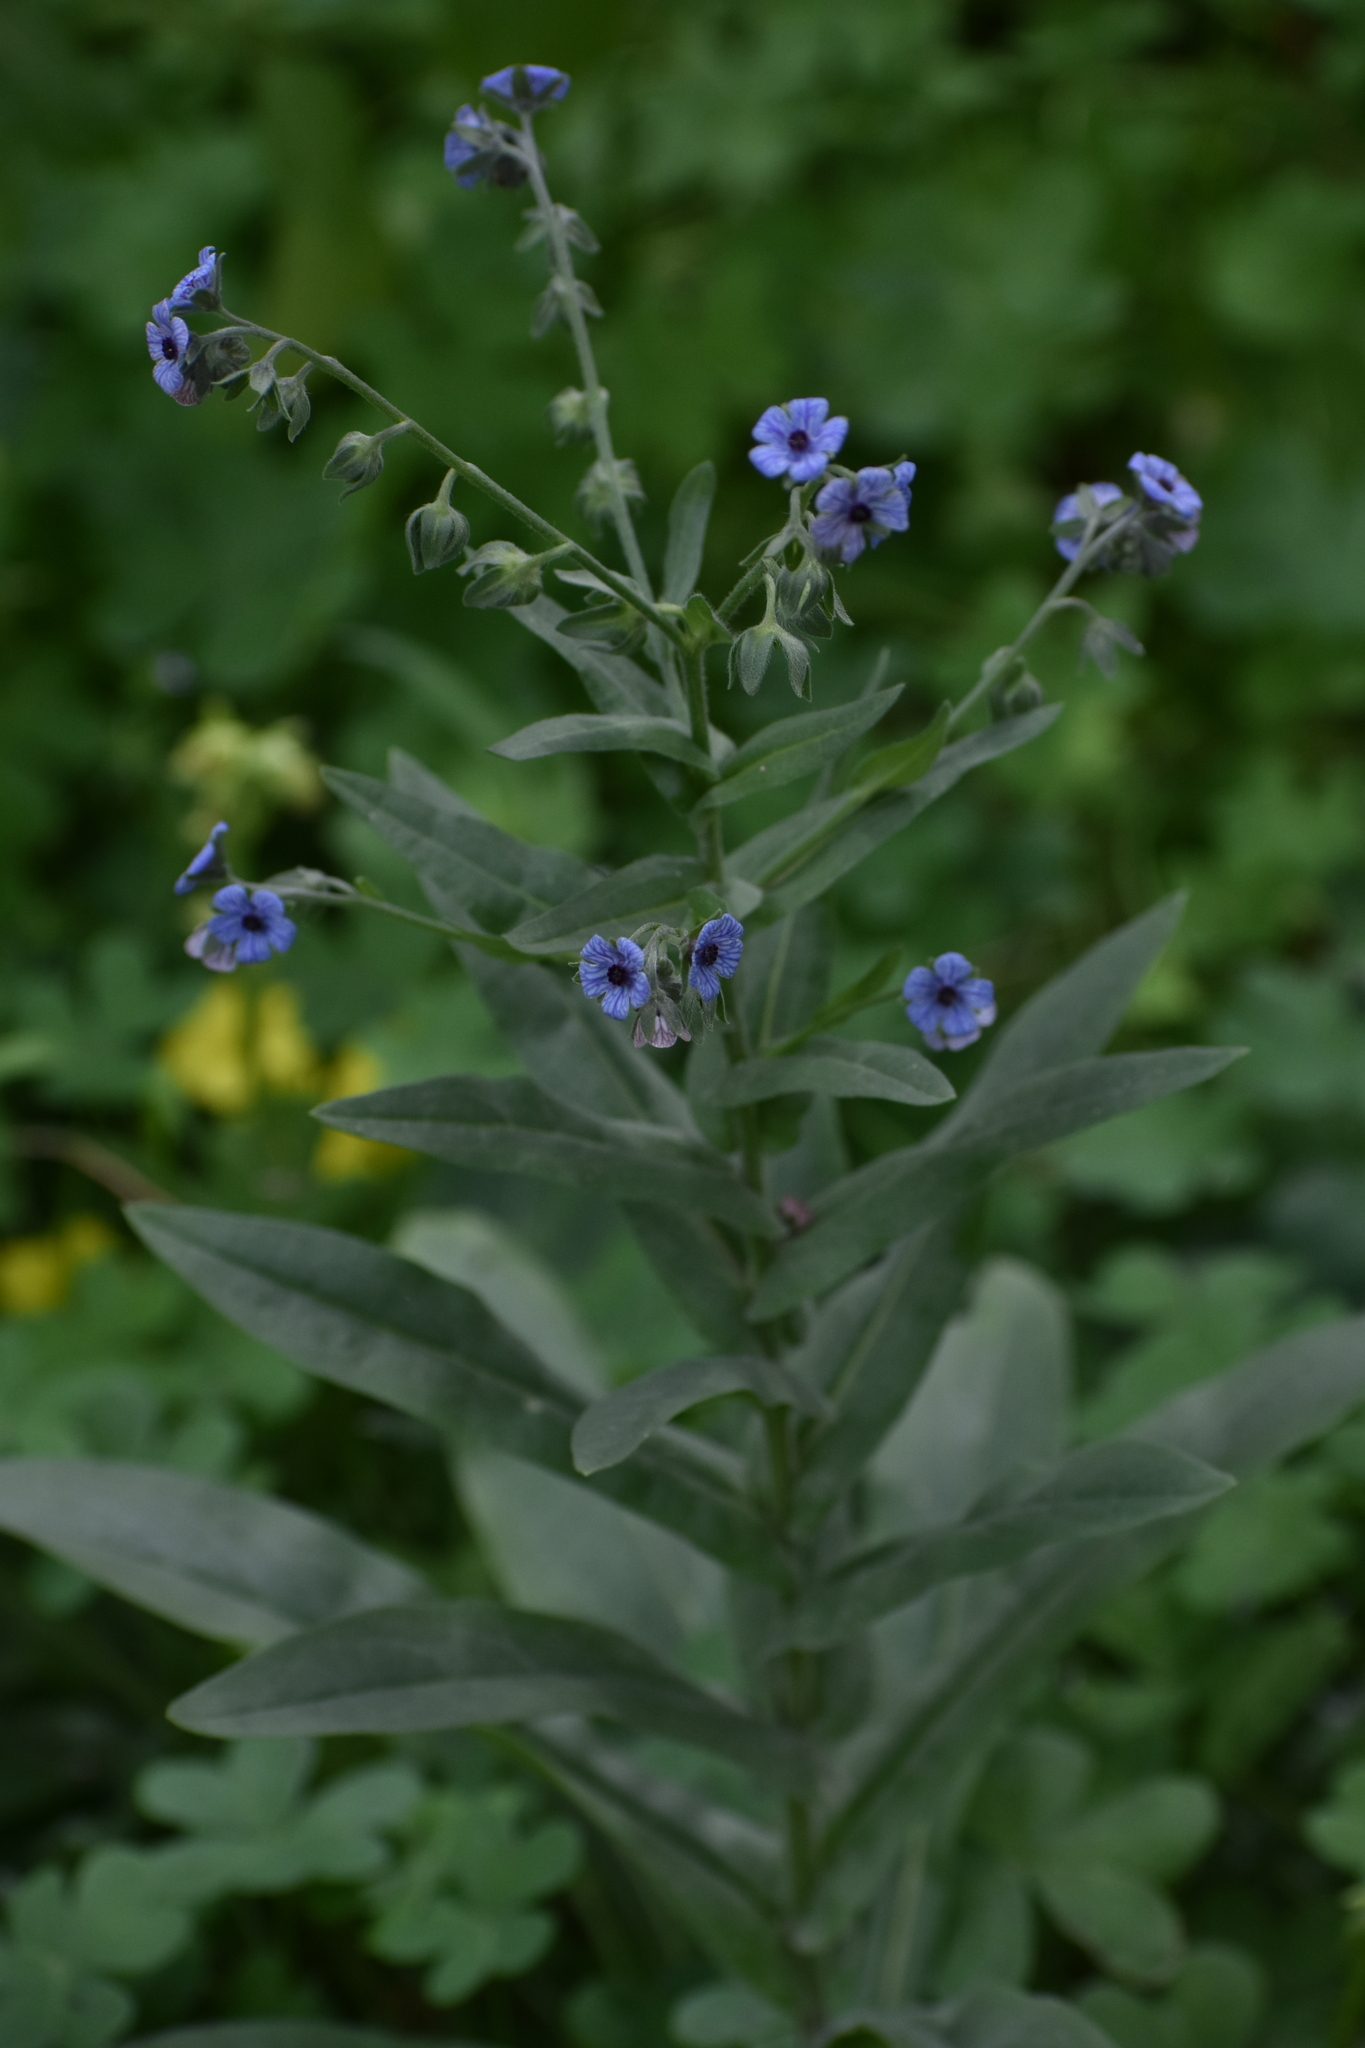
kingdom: Plantae
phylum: Tracheophyta
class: Magnoliopsida
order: Boraginales
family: Boraginaceae
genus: Cynoglossum
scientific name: Cynoglossum creticum
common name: Blue hound's tongue
